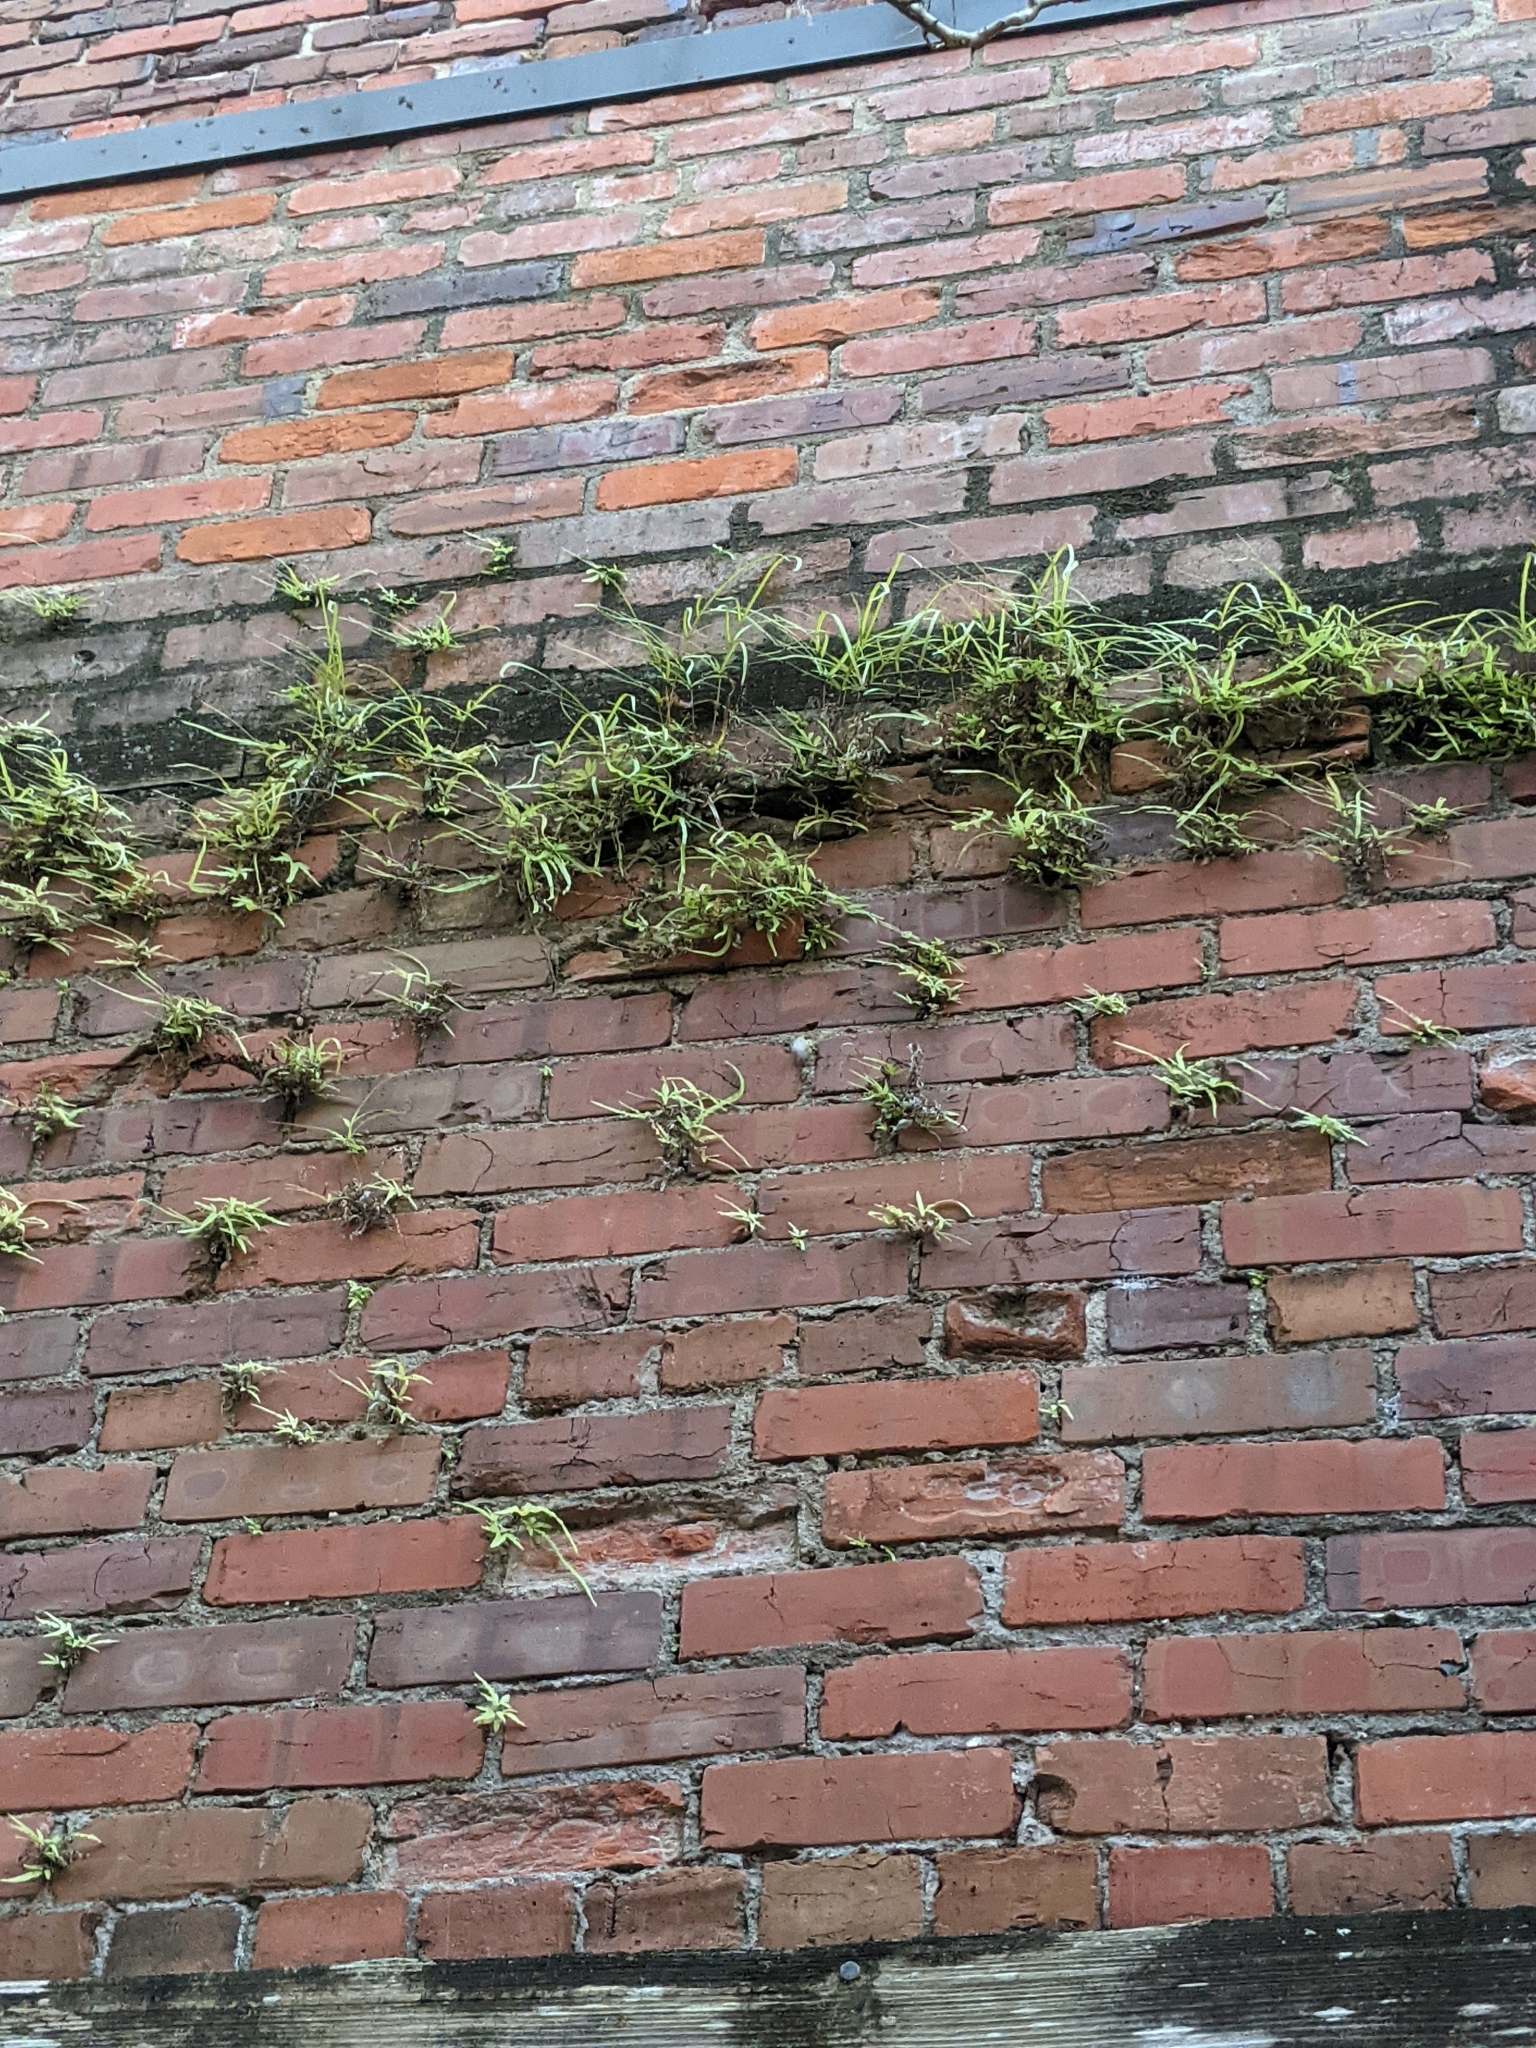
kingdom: Plantae
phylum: Tracheophyta
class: Polypodiopsida
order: Polypodiales
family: Pteridaceae
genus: Pteris
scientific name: Pteris multifida
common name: Spider brake
